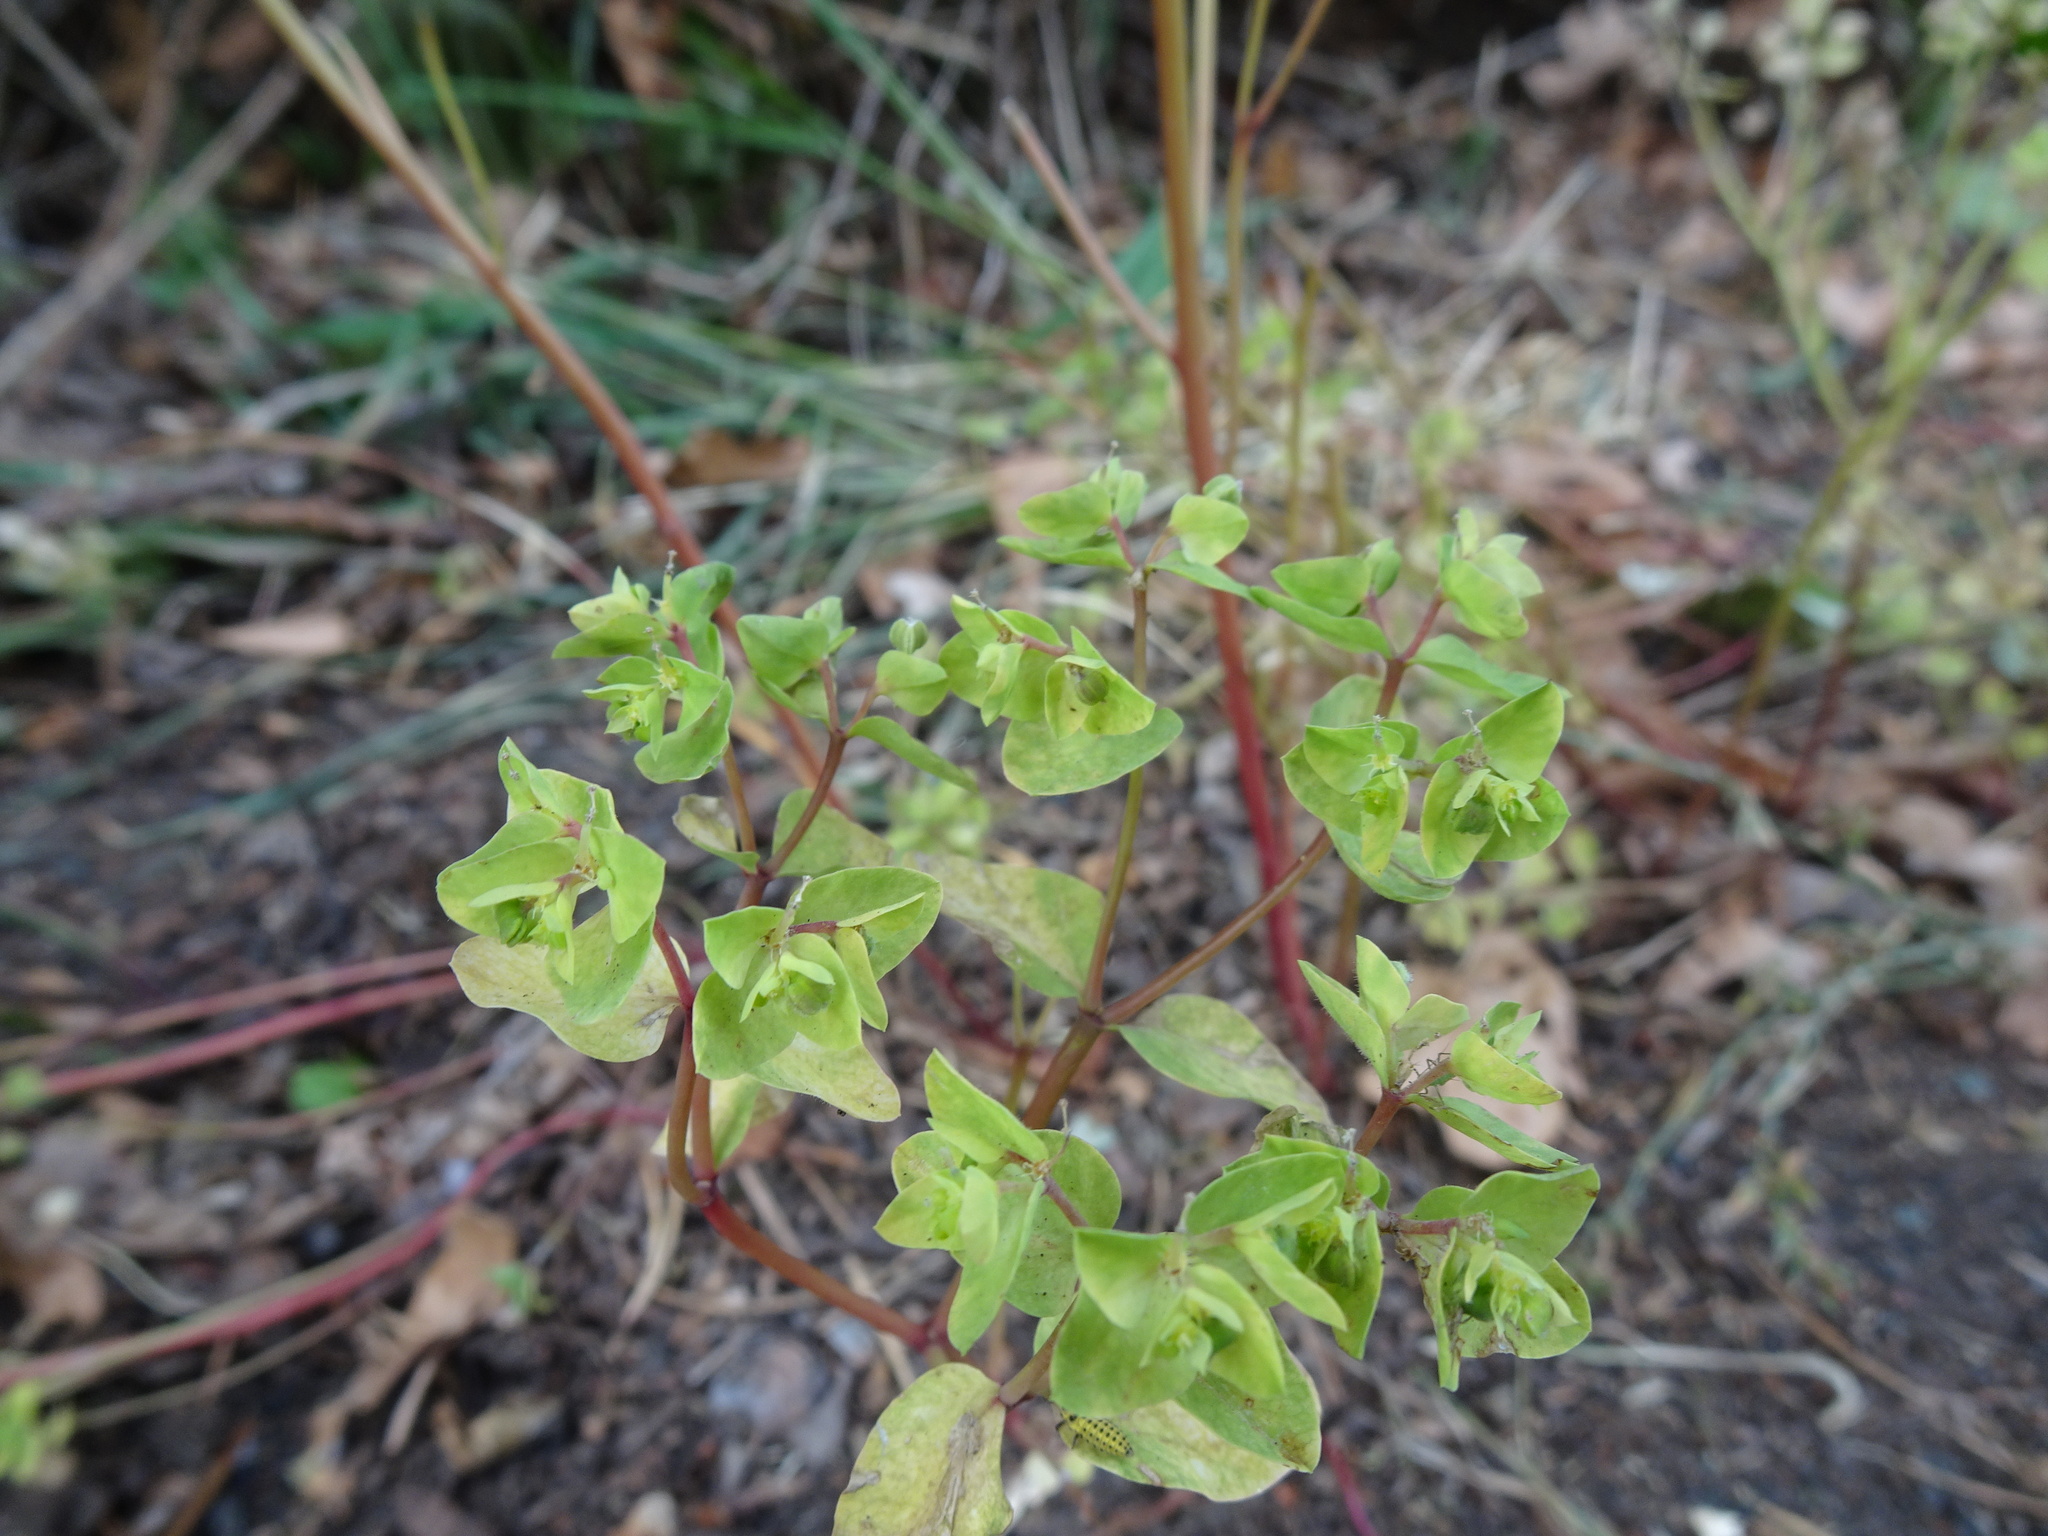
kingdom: Plantae
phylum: Tracheophyta
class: Magnoliopsida
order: Malpighiales
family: Euphorbiaceae
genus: Euphorbia
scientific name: Euphorbia peplus
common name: Petty spurge
